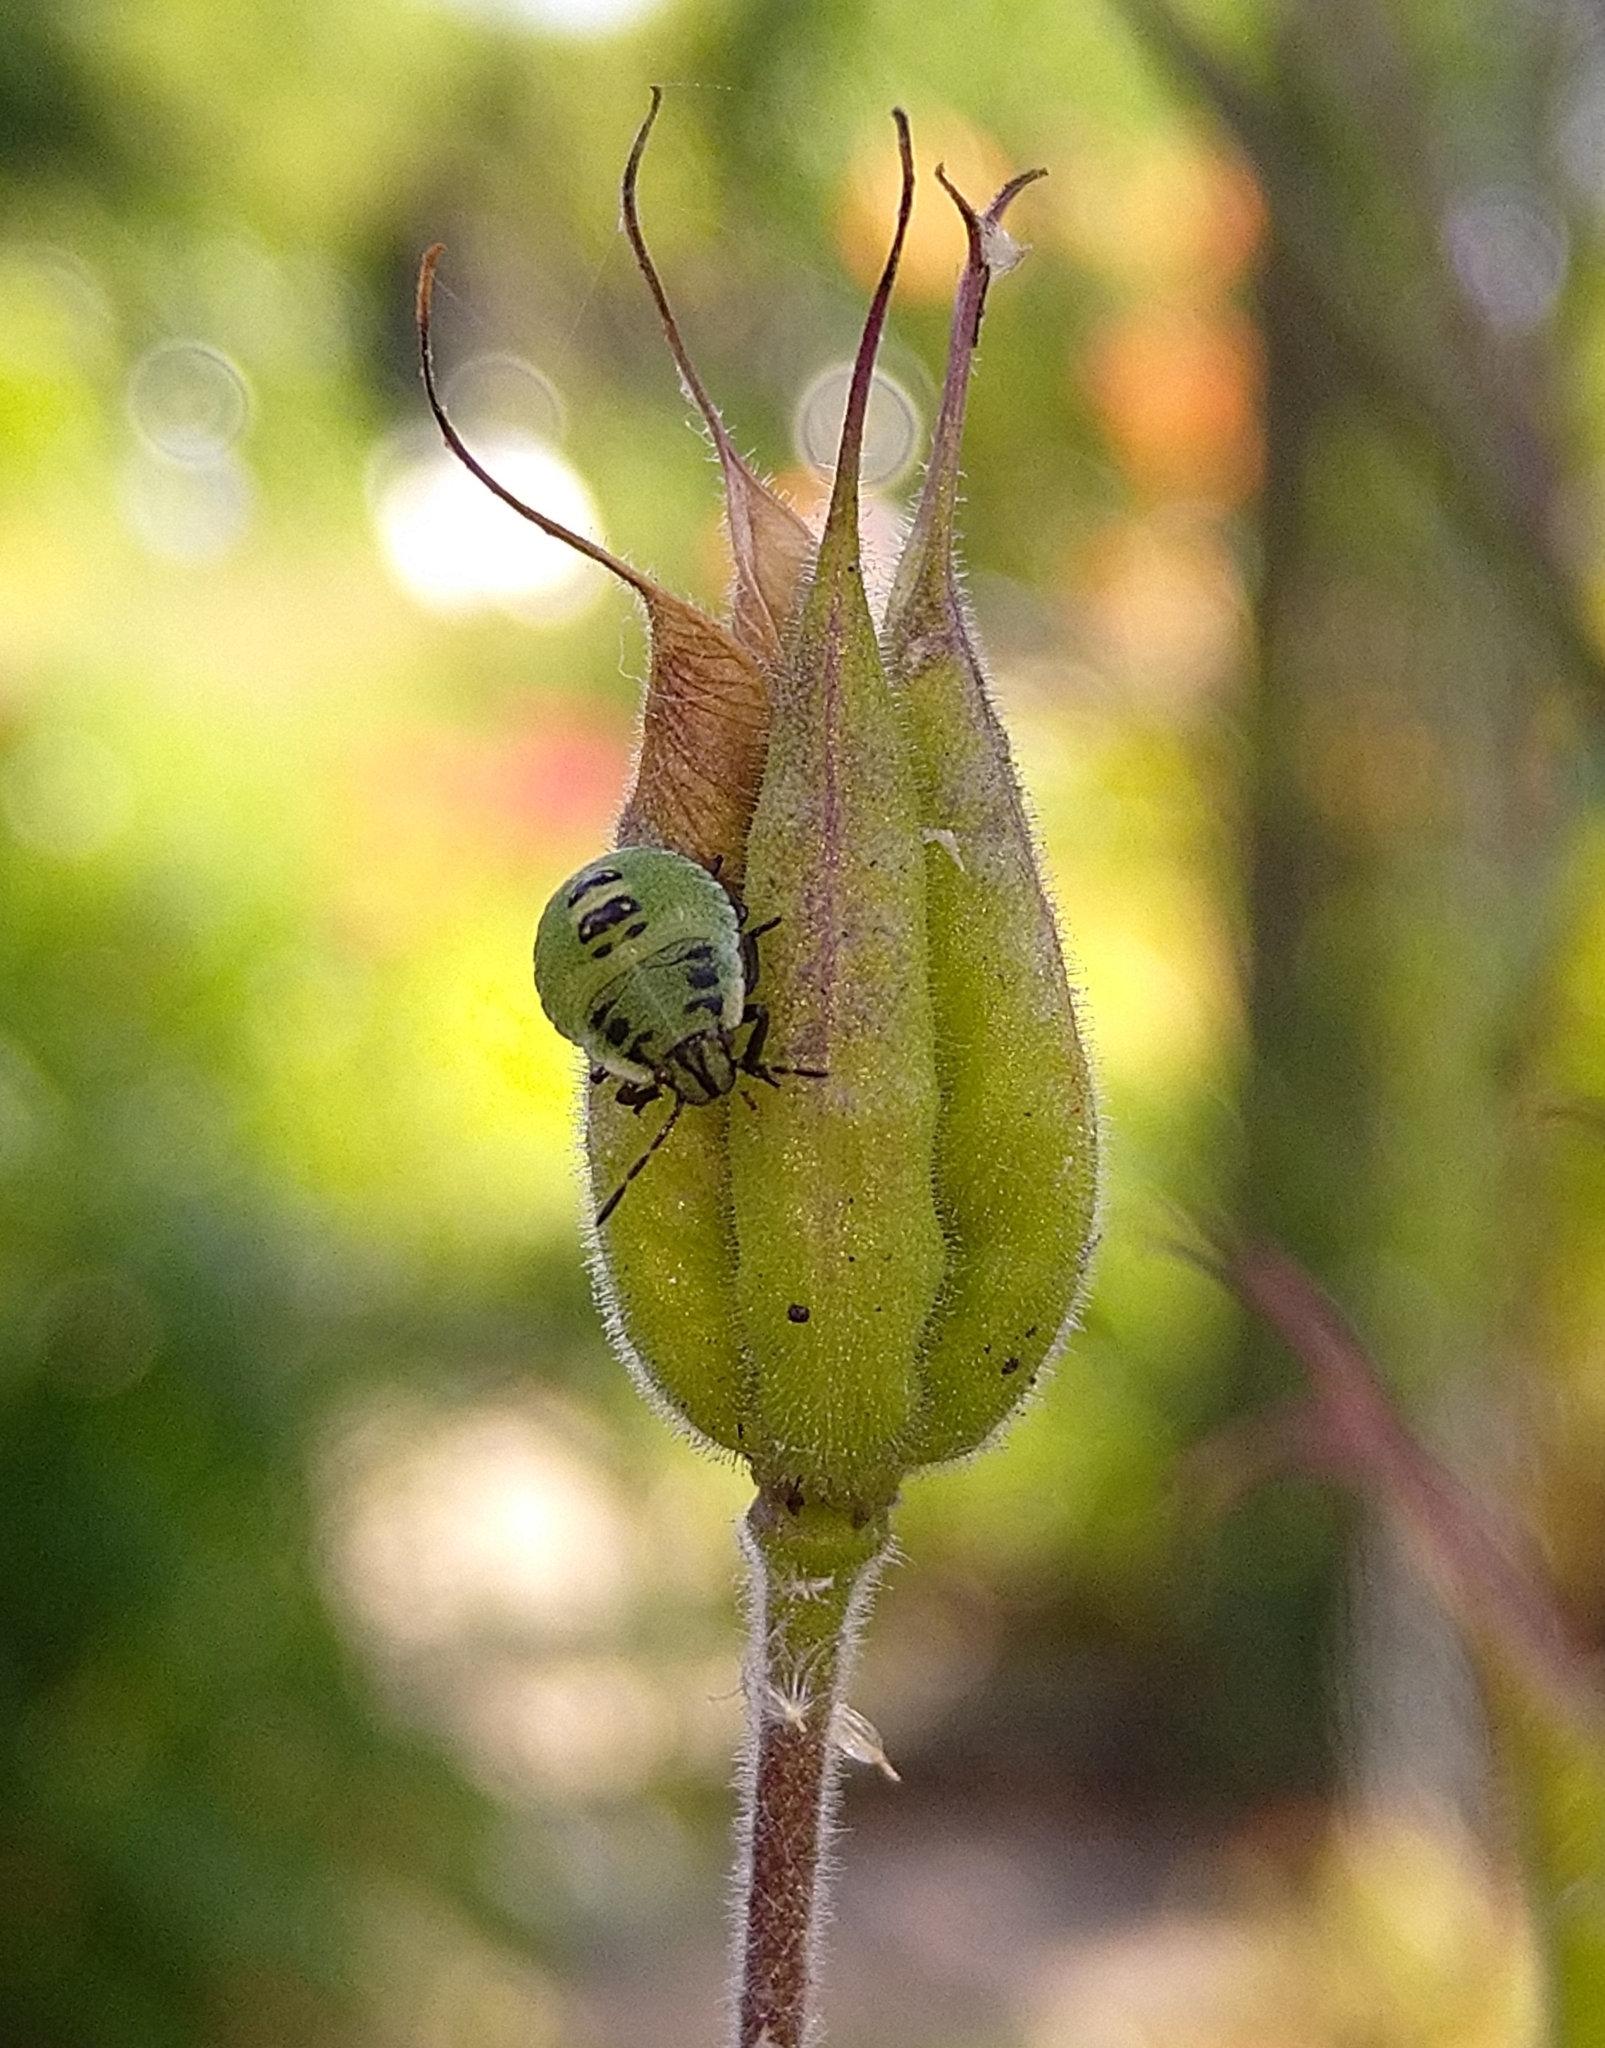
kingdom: Animalia
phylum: Arthropoda
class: Insecta
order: Hemiptera
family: Pentatomidae
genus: Palomena
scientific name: Palomena prasina
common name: Green shieldbug
